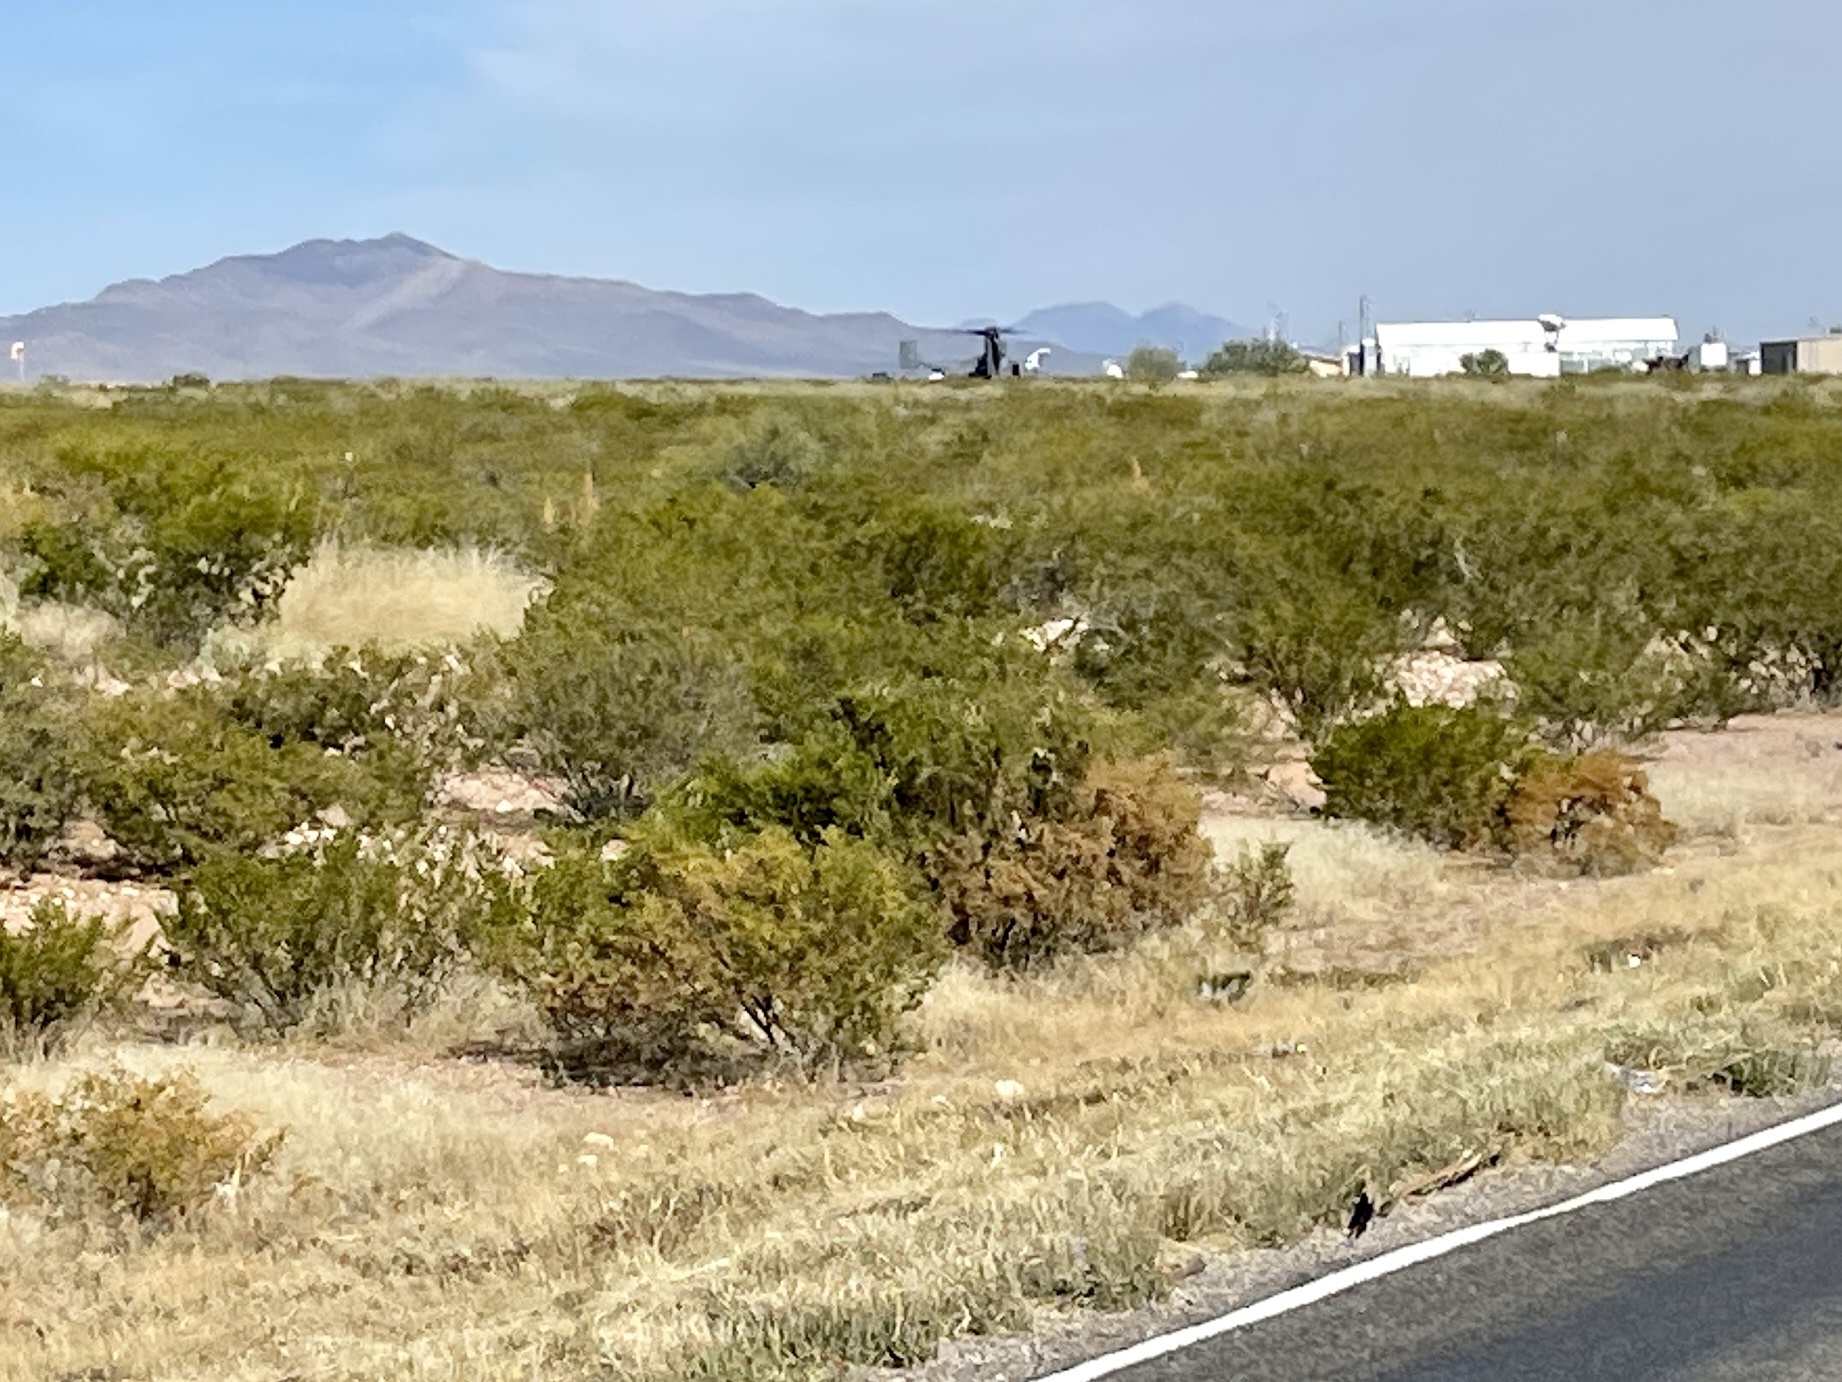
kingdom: Plantae
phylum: Tracheophyta
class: Magnoliopsida
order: Zygophyllales
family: Zygophyllaceae
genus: Larrea
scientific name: Larrea tridentata
